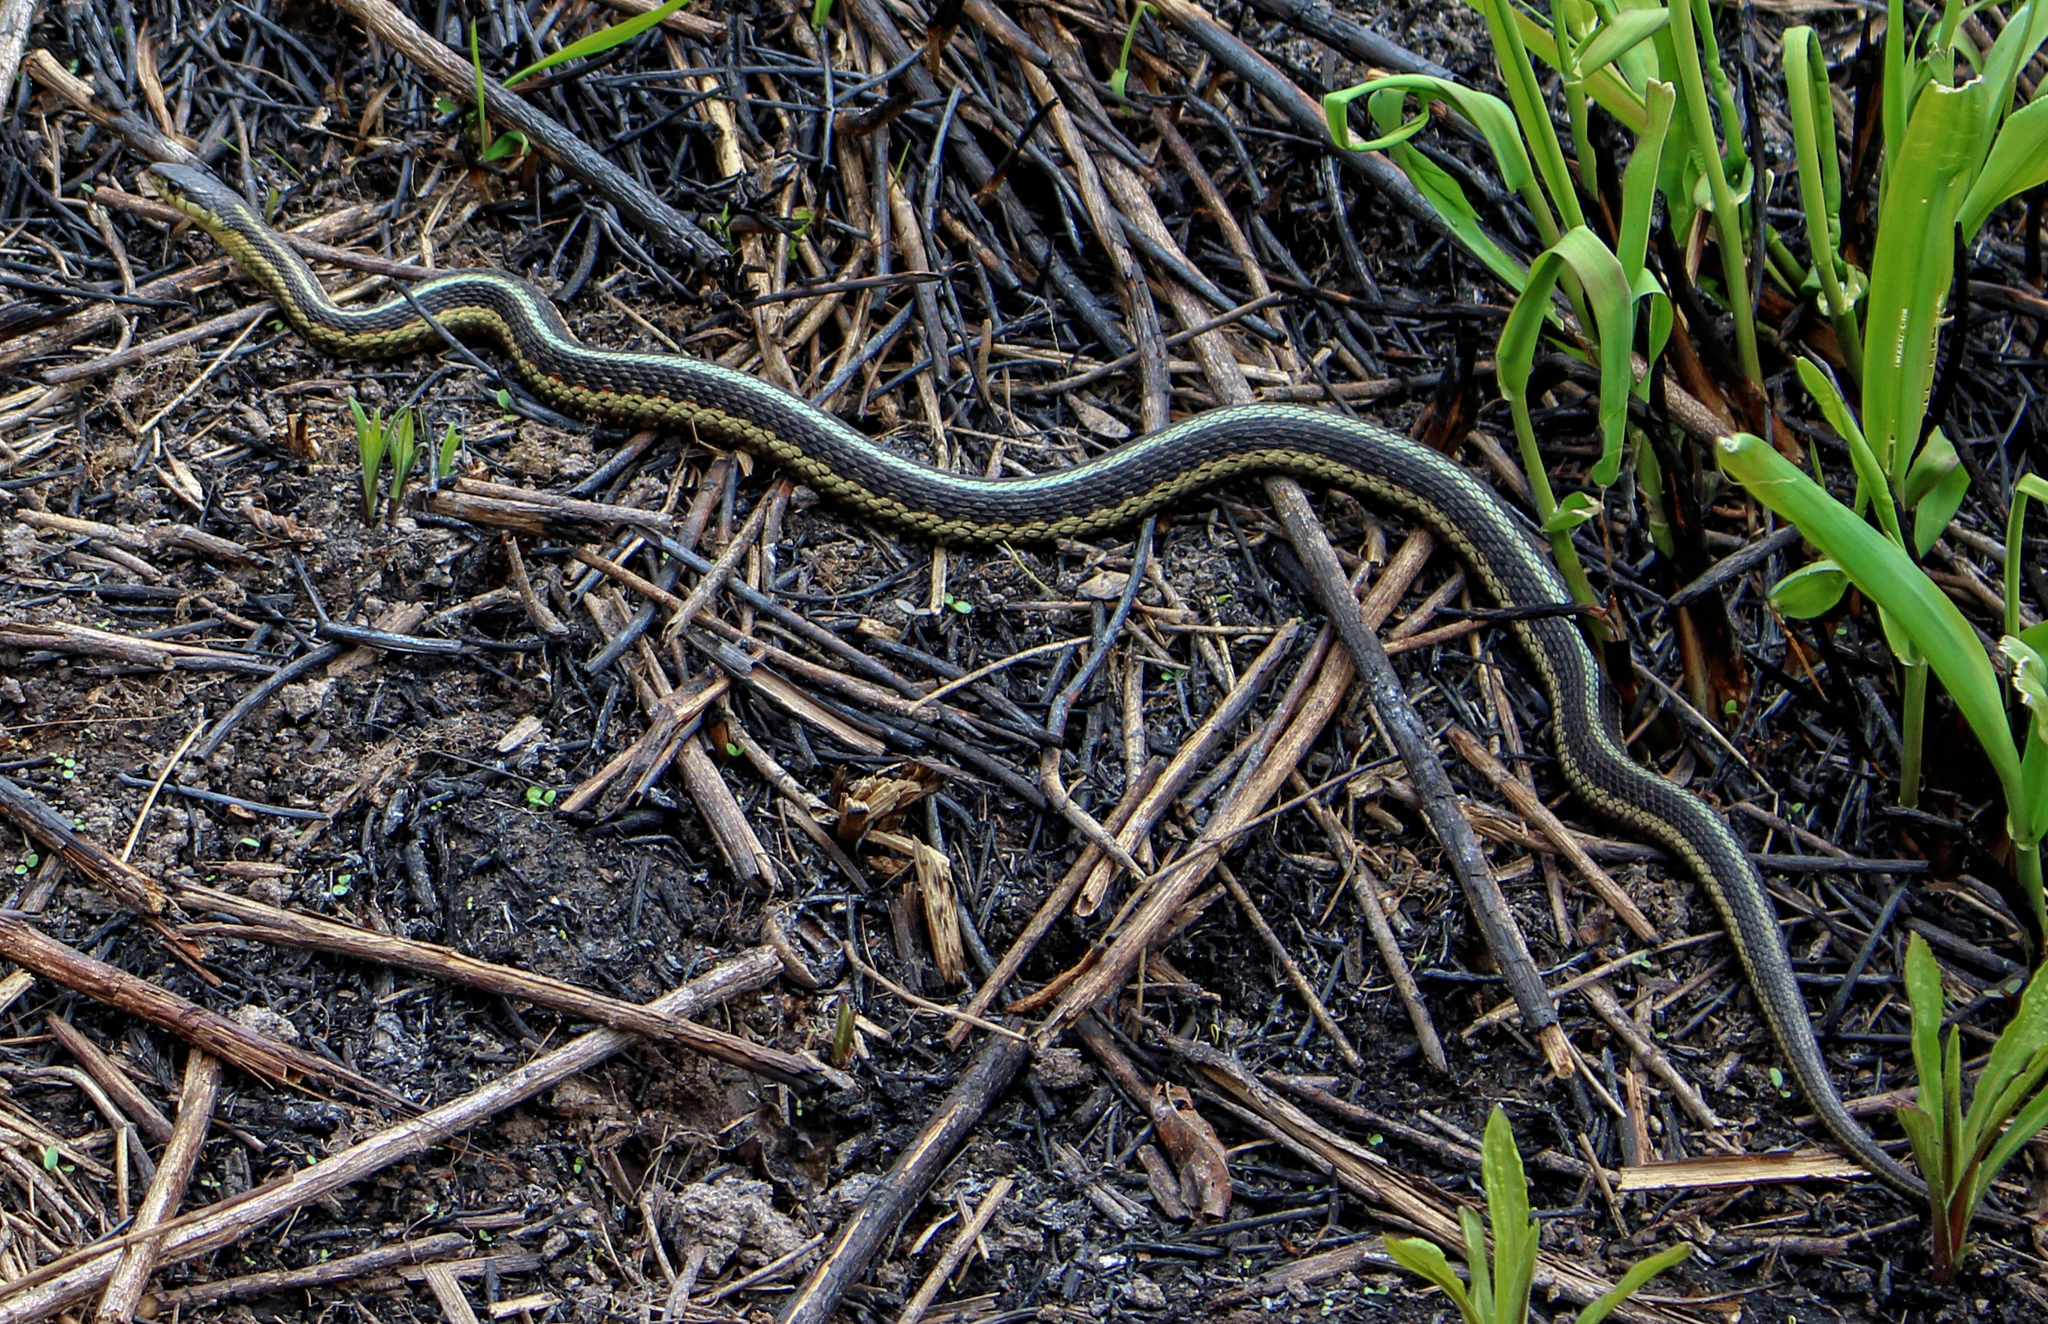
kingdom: Animalia
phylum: Chordata
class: Squamata
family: Colubridae
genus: Thamnophis
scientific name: Thamnophis sirtalis
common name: Common garter snake
